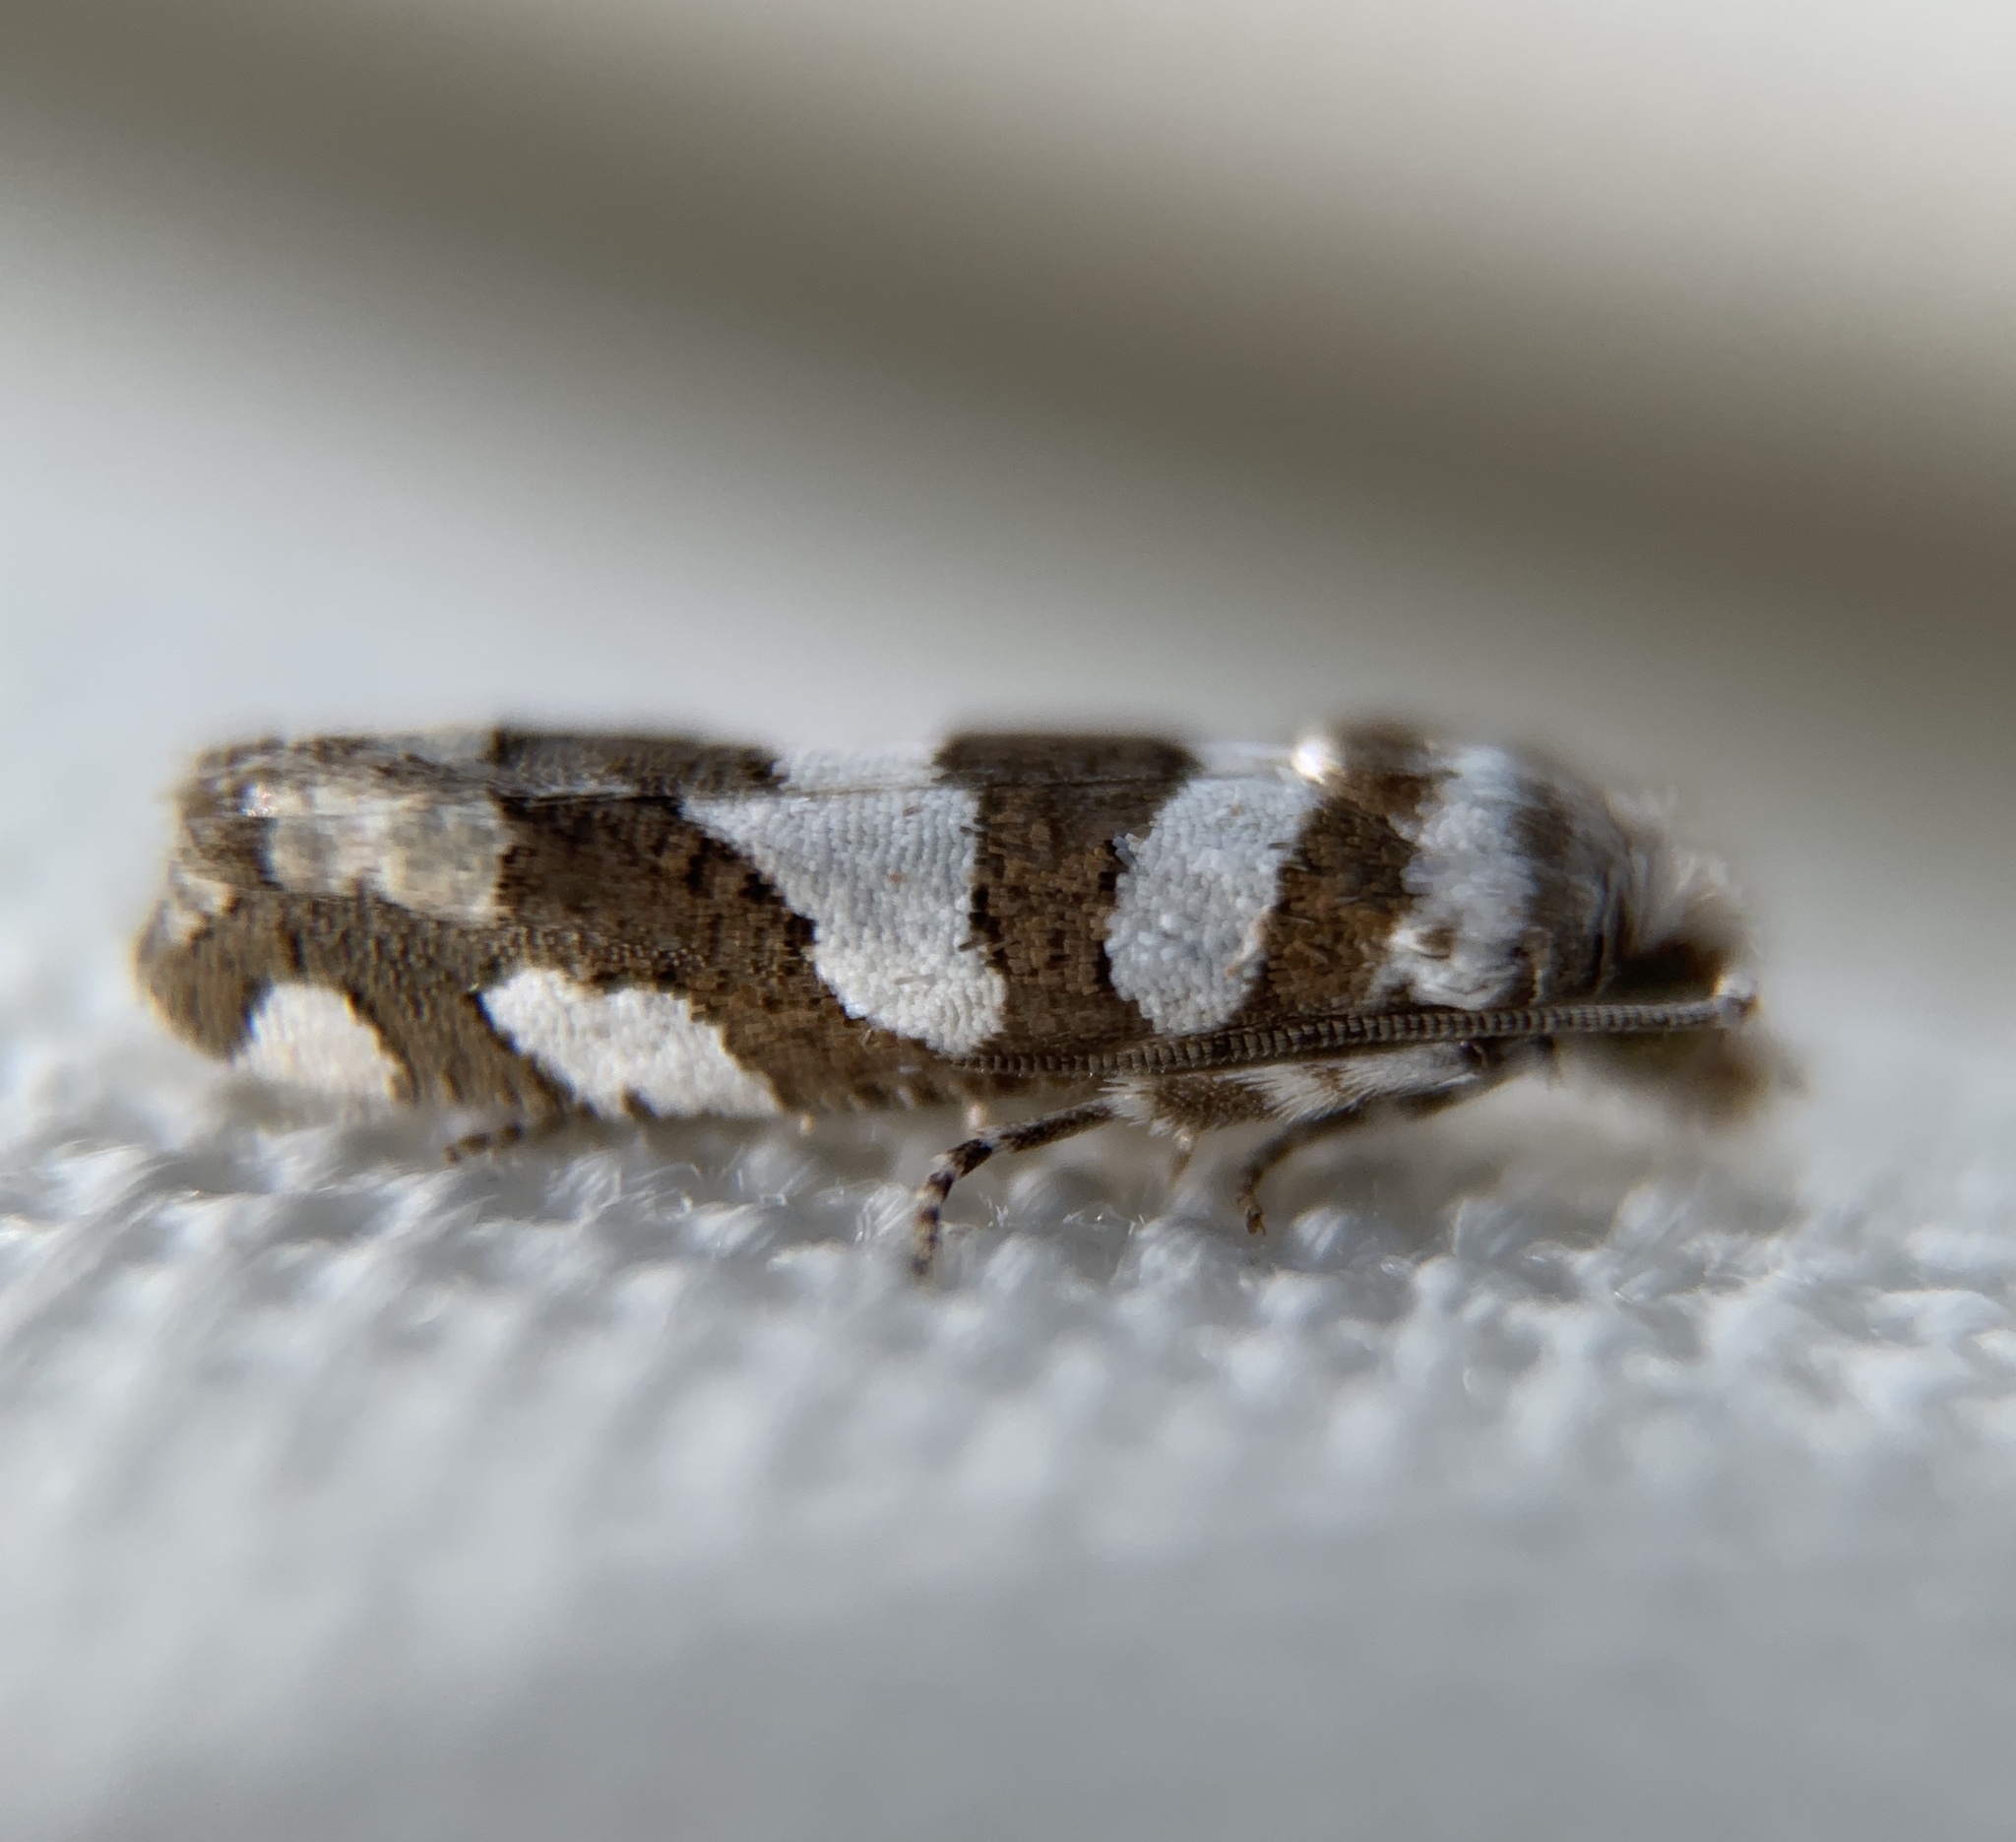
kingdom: Animalia
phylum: Arthropoda
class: Insecta
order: Lepidoptera
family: Tortricidae
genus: Pelochrista
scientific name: Pelochrista robinsonana
